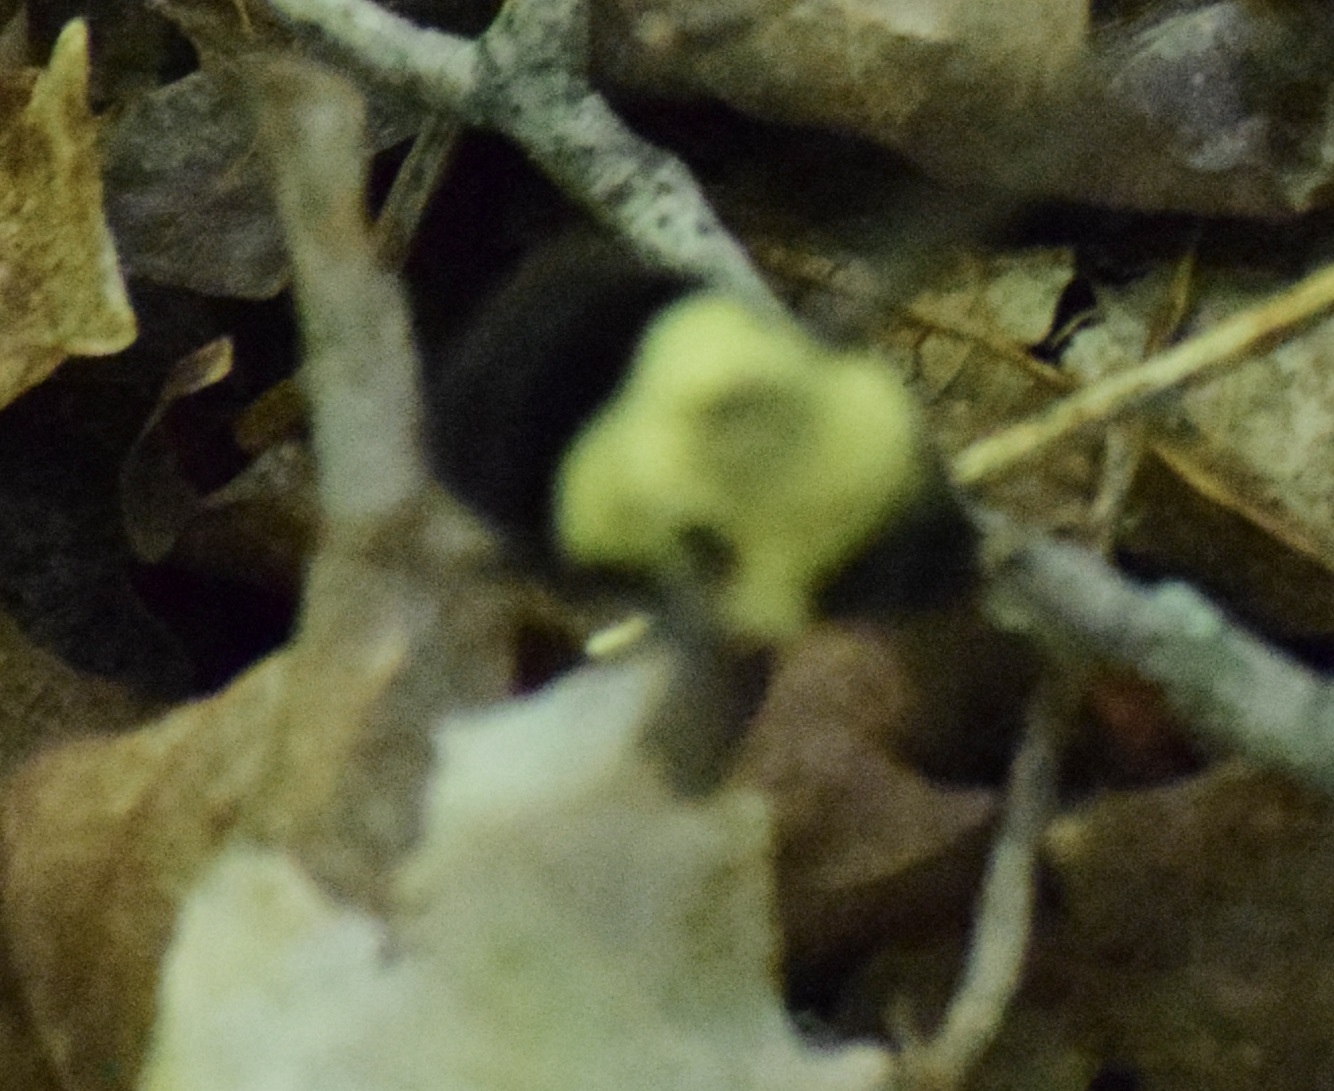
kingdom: Animalia
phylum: Arthropoda
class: Insecta
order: Hymenoptera
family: Apidae
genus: Bombus
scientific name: Bombus impatiens
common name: Common eastern bumble bee
